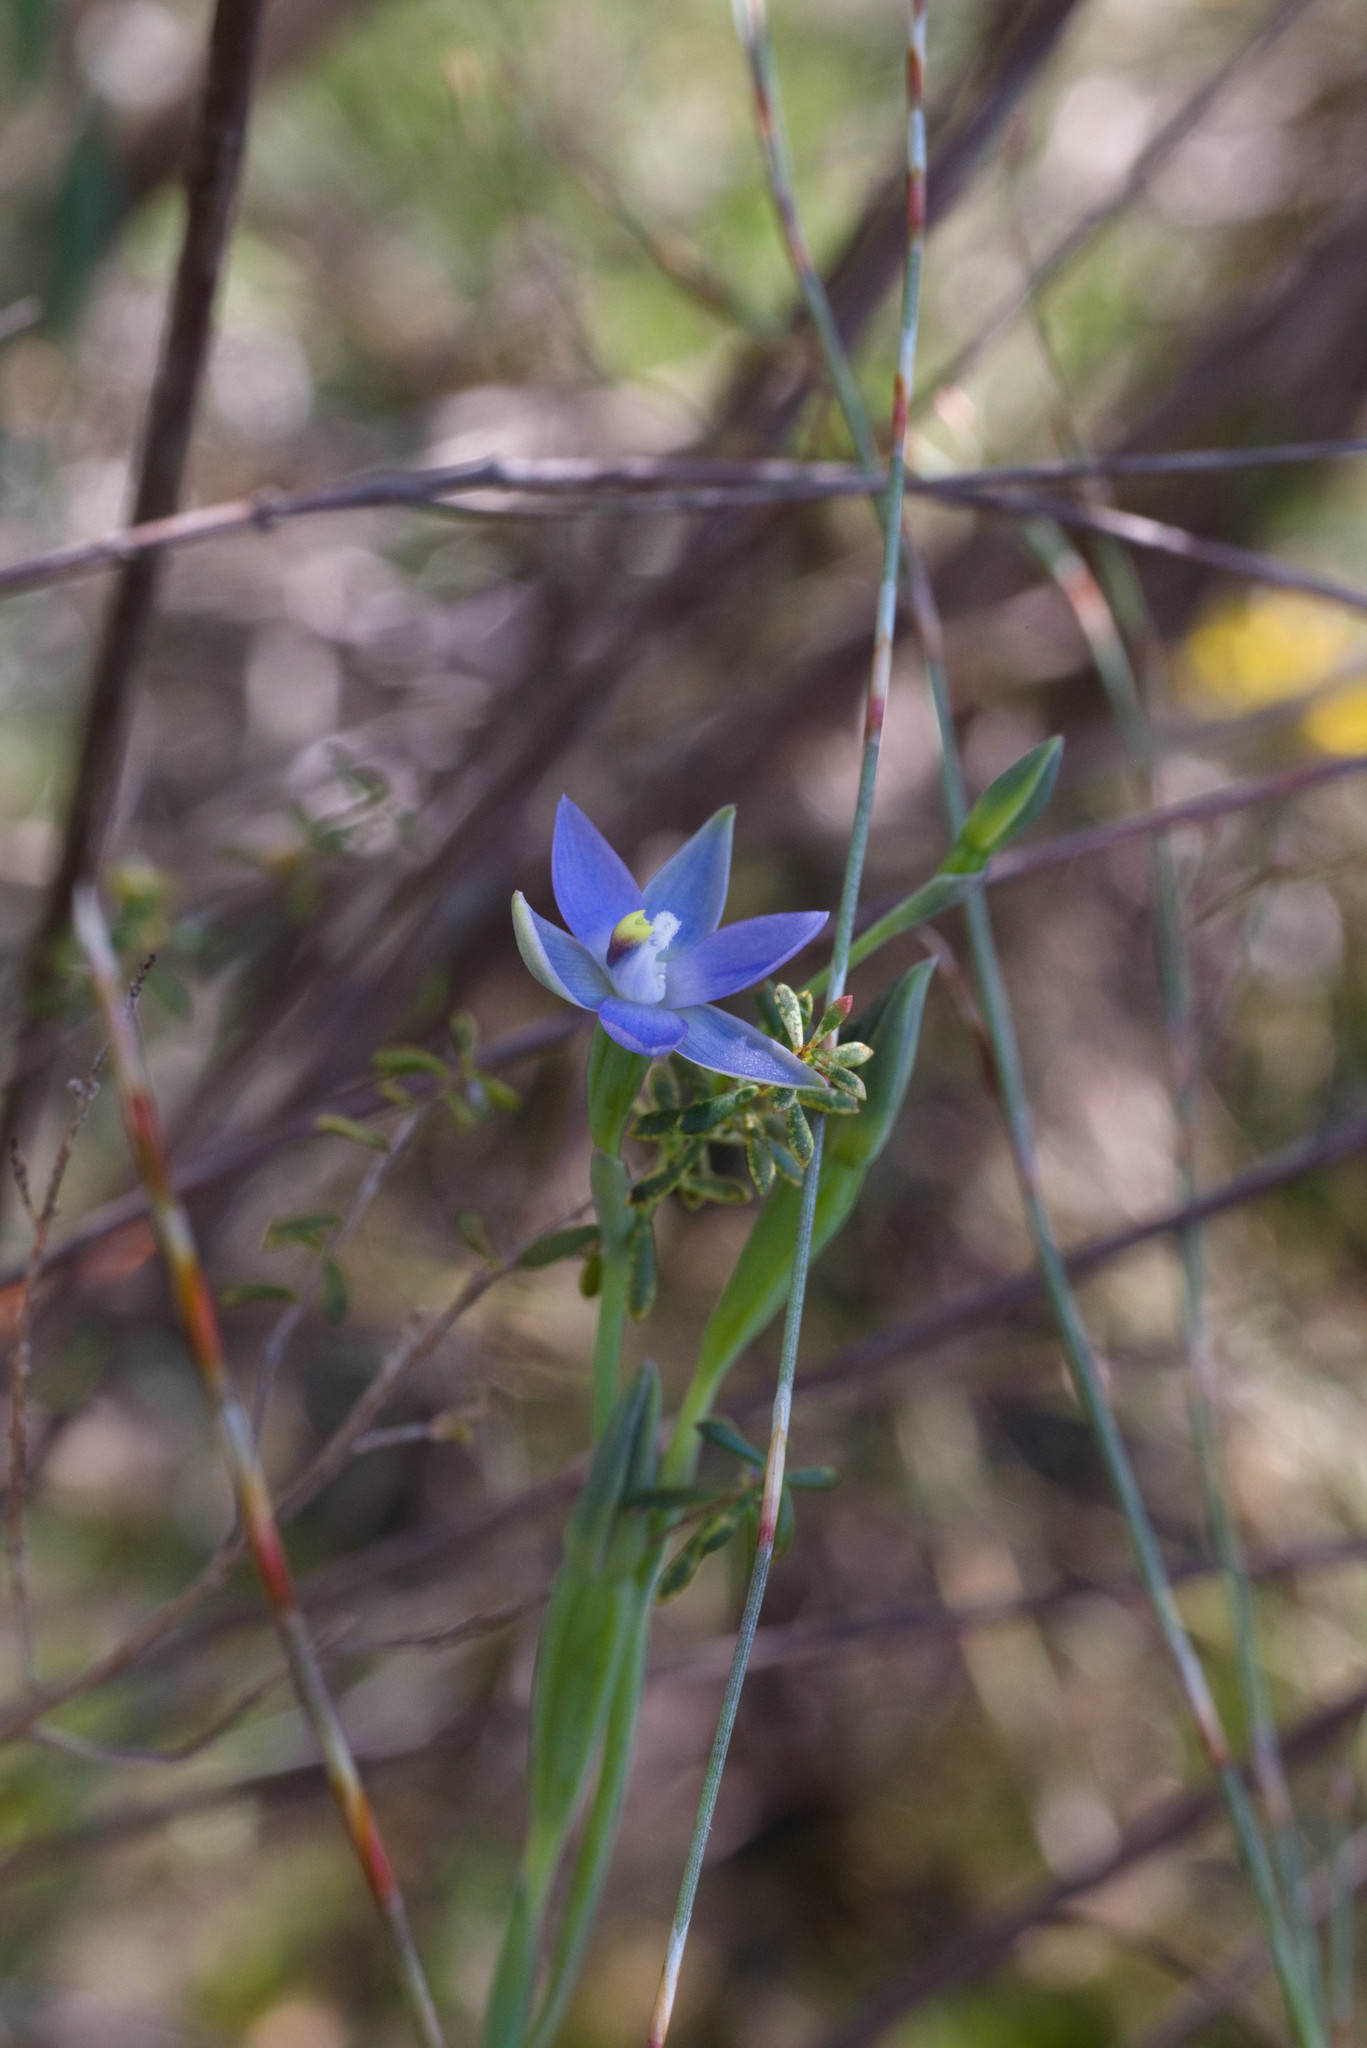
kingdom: Plantae
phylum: Tracheophyta
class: Liliopsida
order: Asparagales
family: Orchidaceae
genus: Thelymitra
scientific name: Thelymitra vulgaris
